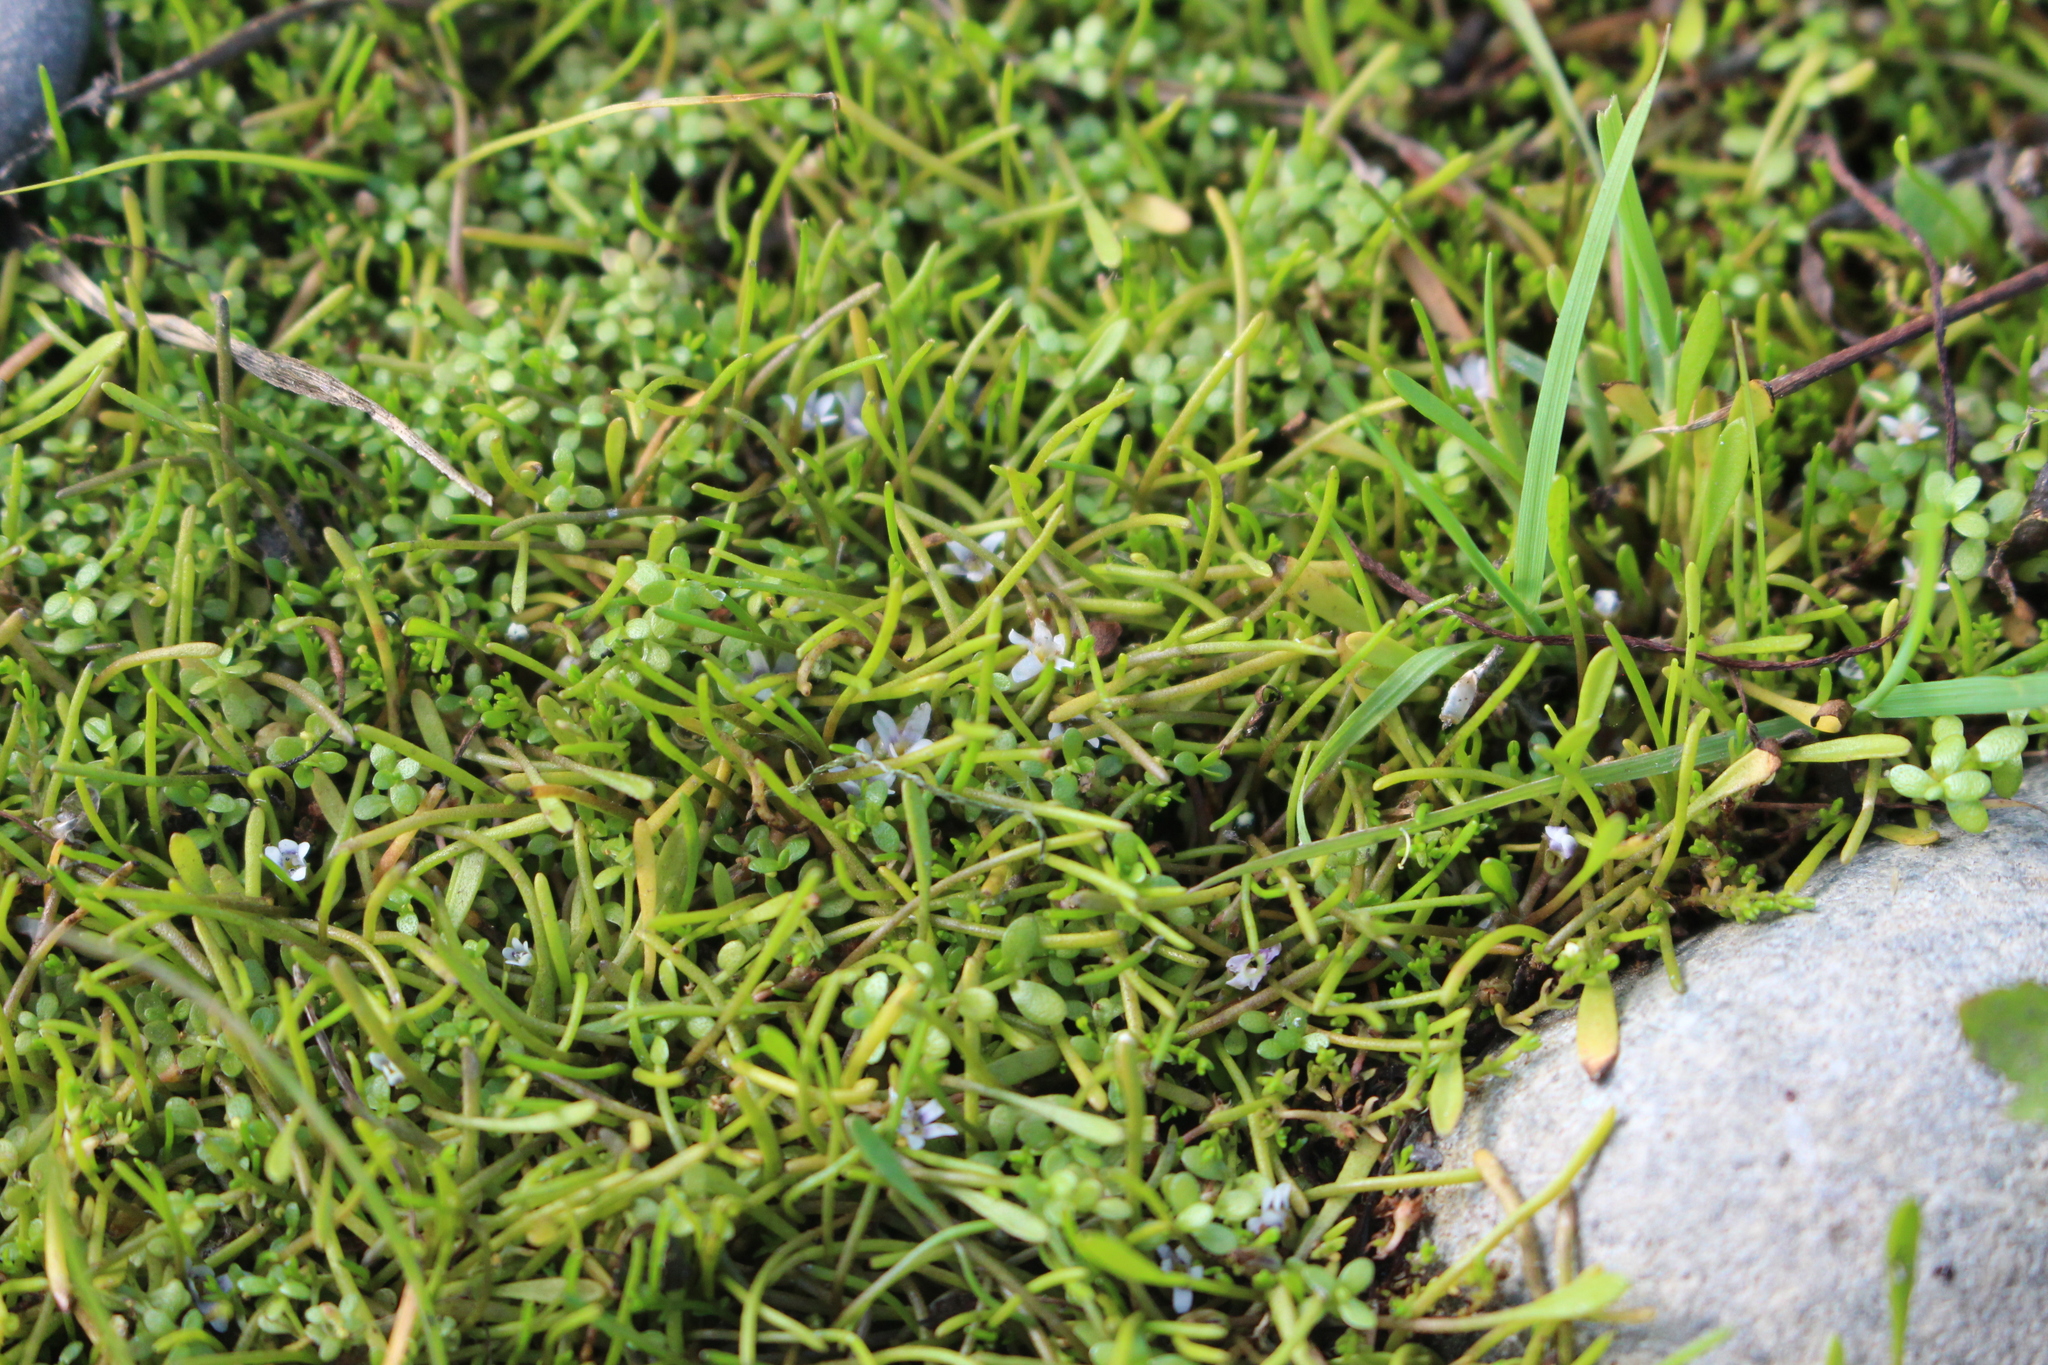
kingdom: Plantae
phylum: Tracheophyta
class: Magnoliopsida
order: Lamiales
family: Scrophulariaceae
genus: Limosella
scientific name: Limosella australis
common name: Welsh mudwort
